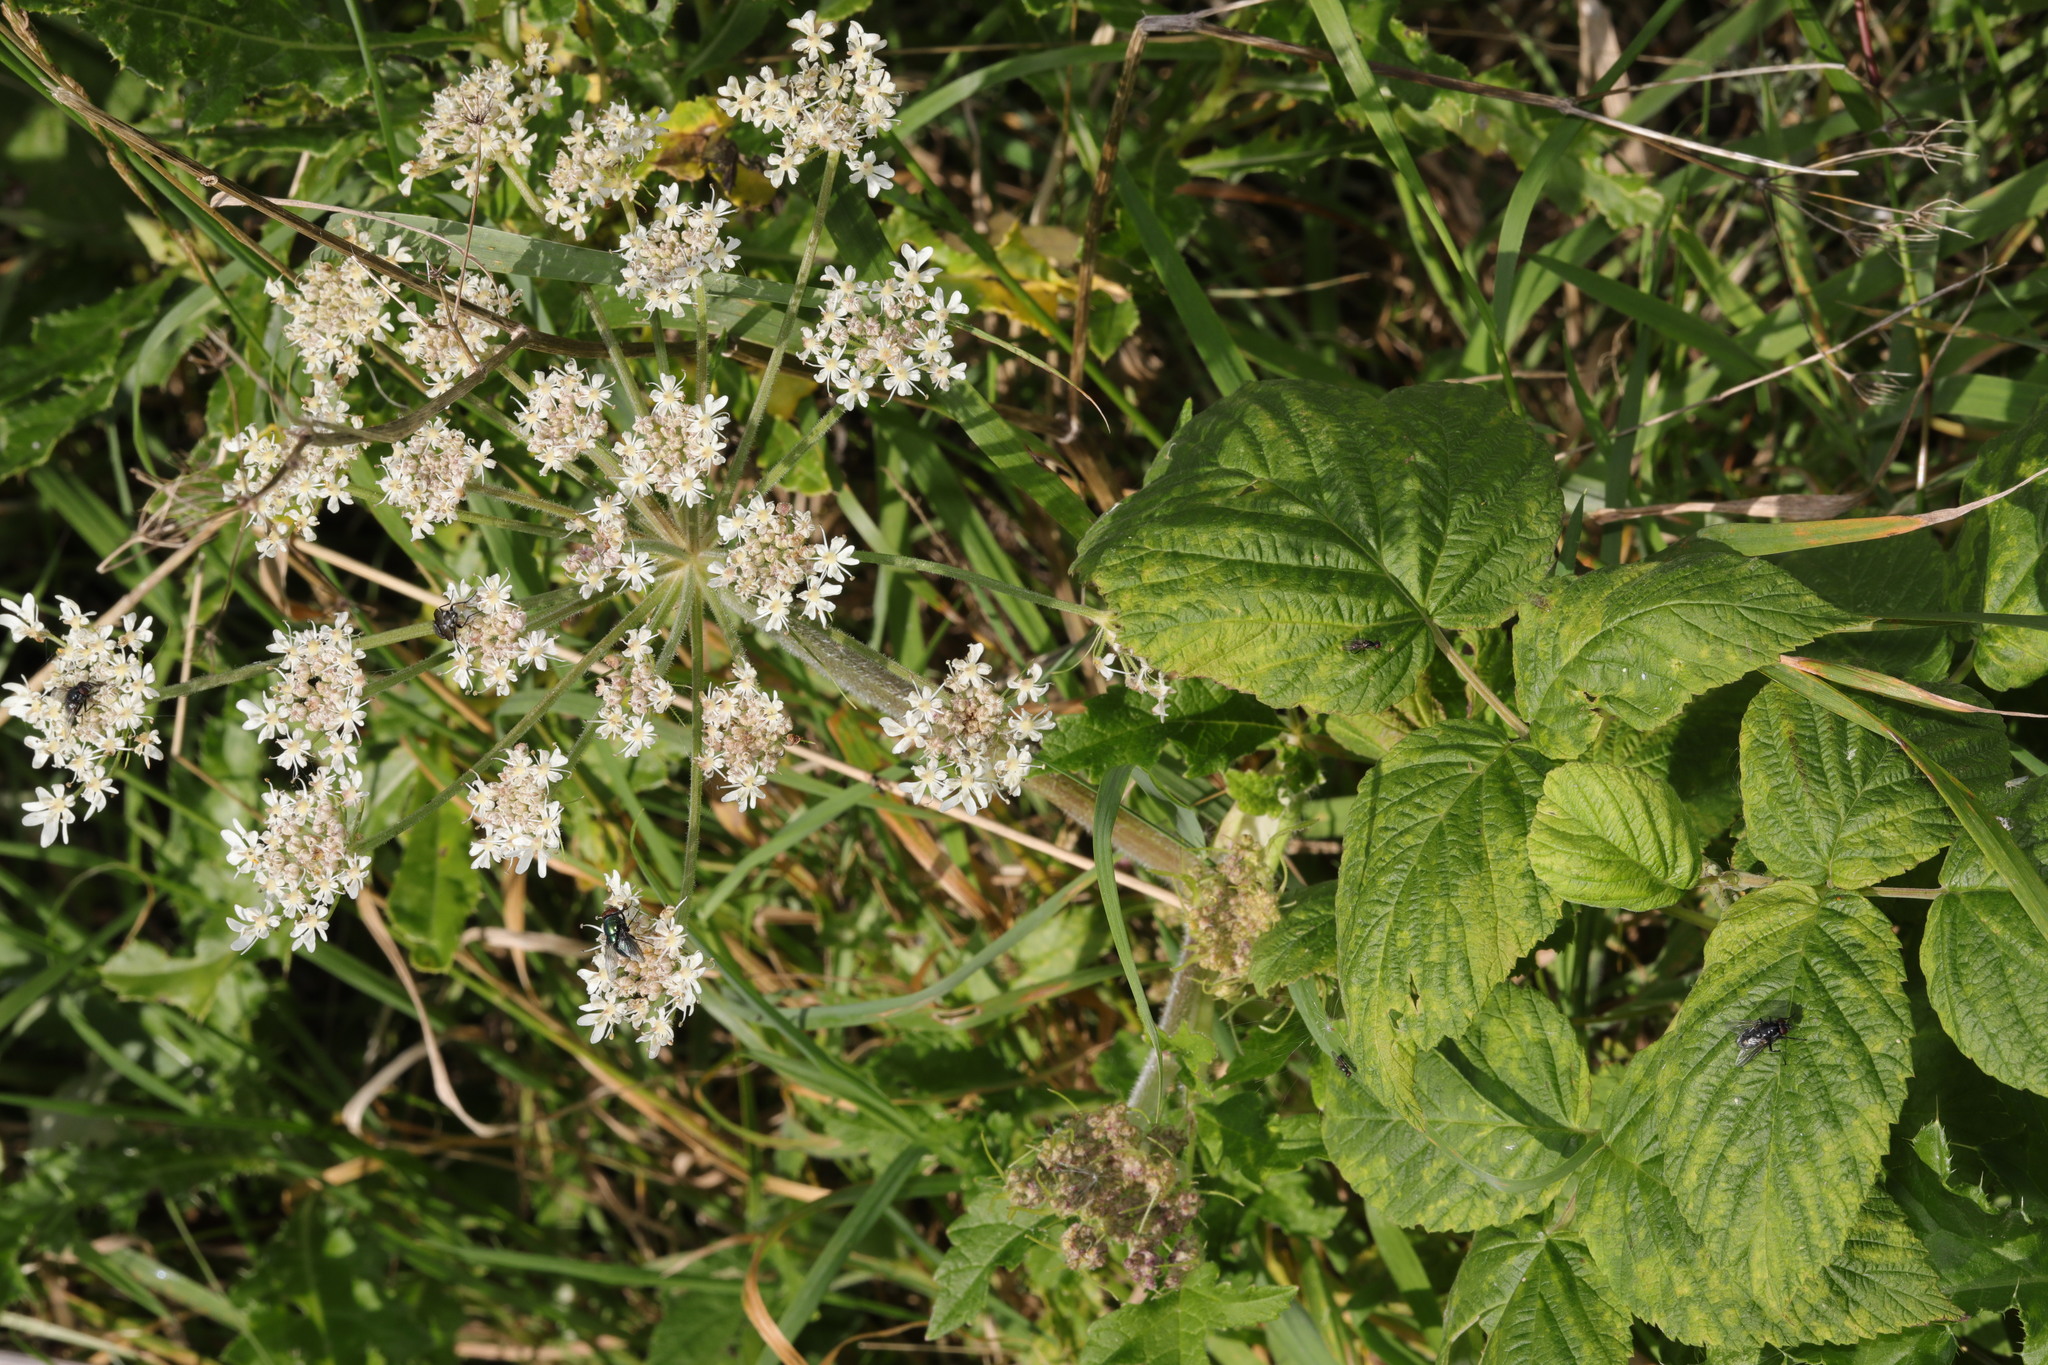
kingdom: Plantae
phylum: Tracheophyta
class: Magnoliopsida
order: Apiales
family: Apiaceae
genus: Heracleum
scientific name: Heracleum sphondylium
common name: Hogweed
